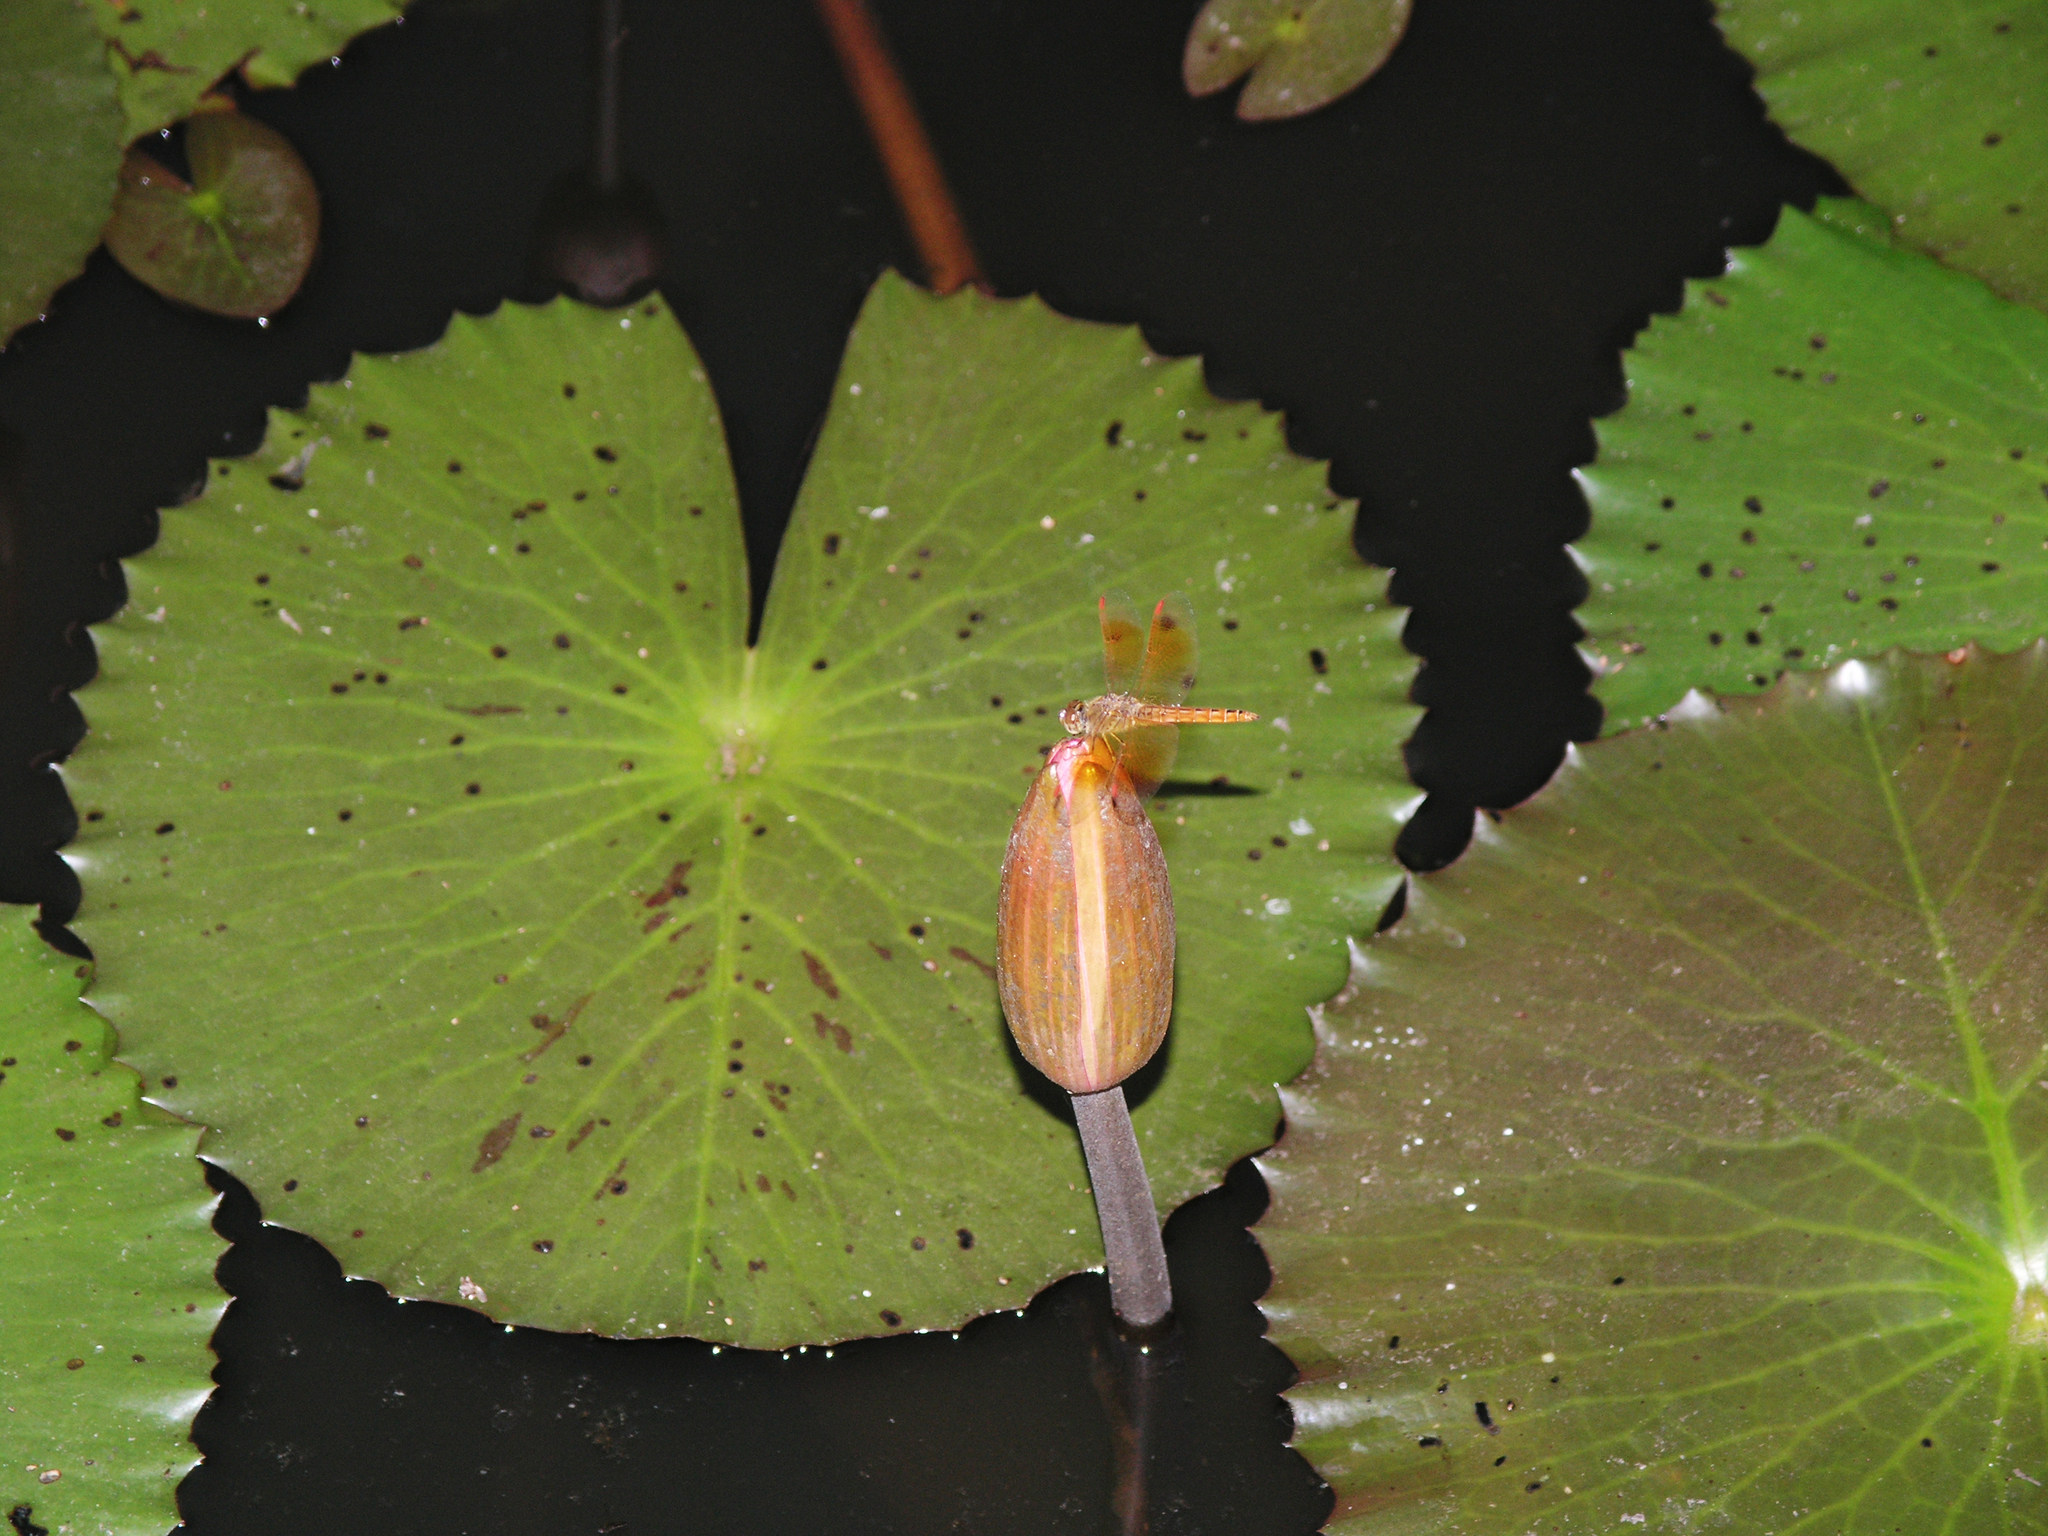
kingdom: Animalia
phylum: Arthropoda
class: Insecta
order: Odonata
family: Libellulidae
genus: Brachythemis
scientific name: Brachythemis contaminata
